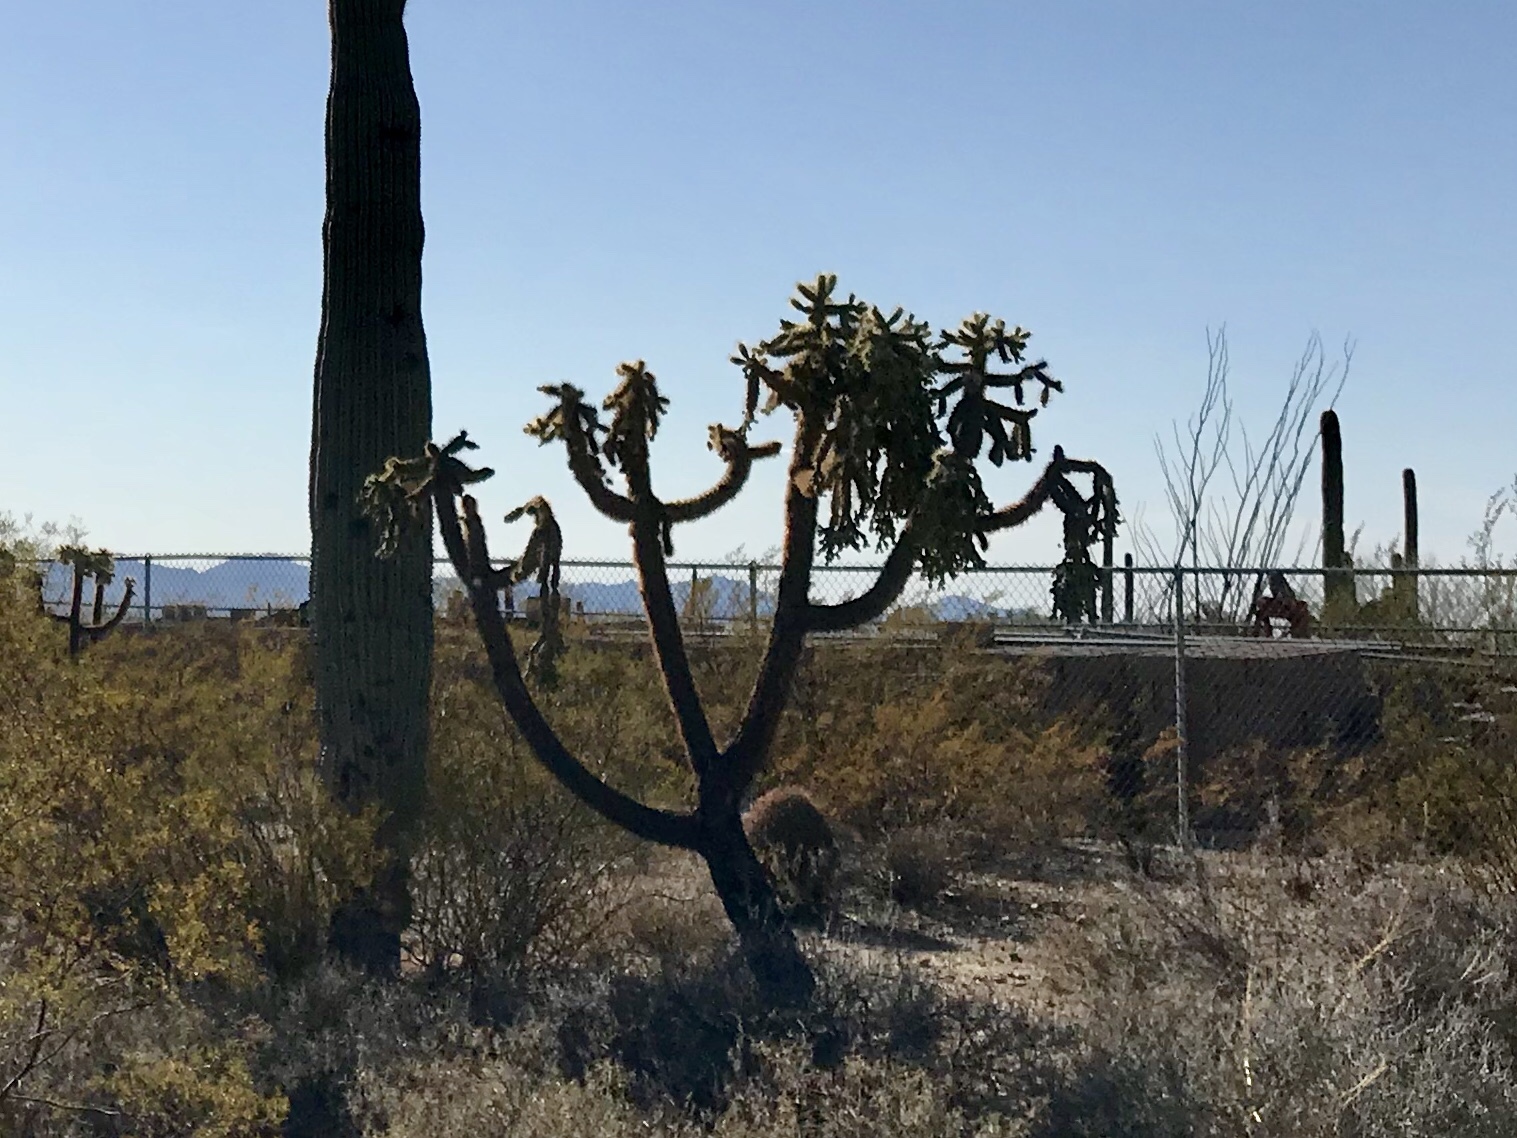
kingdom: Plantae
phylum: Tracheophyta
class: Magnoliopsida
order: Caryophyllales
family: Cactaceae
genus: Cylindropuntia
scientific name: Cylindropuntia fulgida
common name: Jumping cholla
